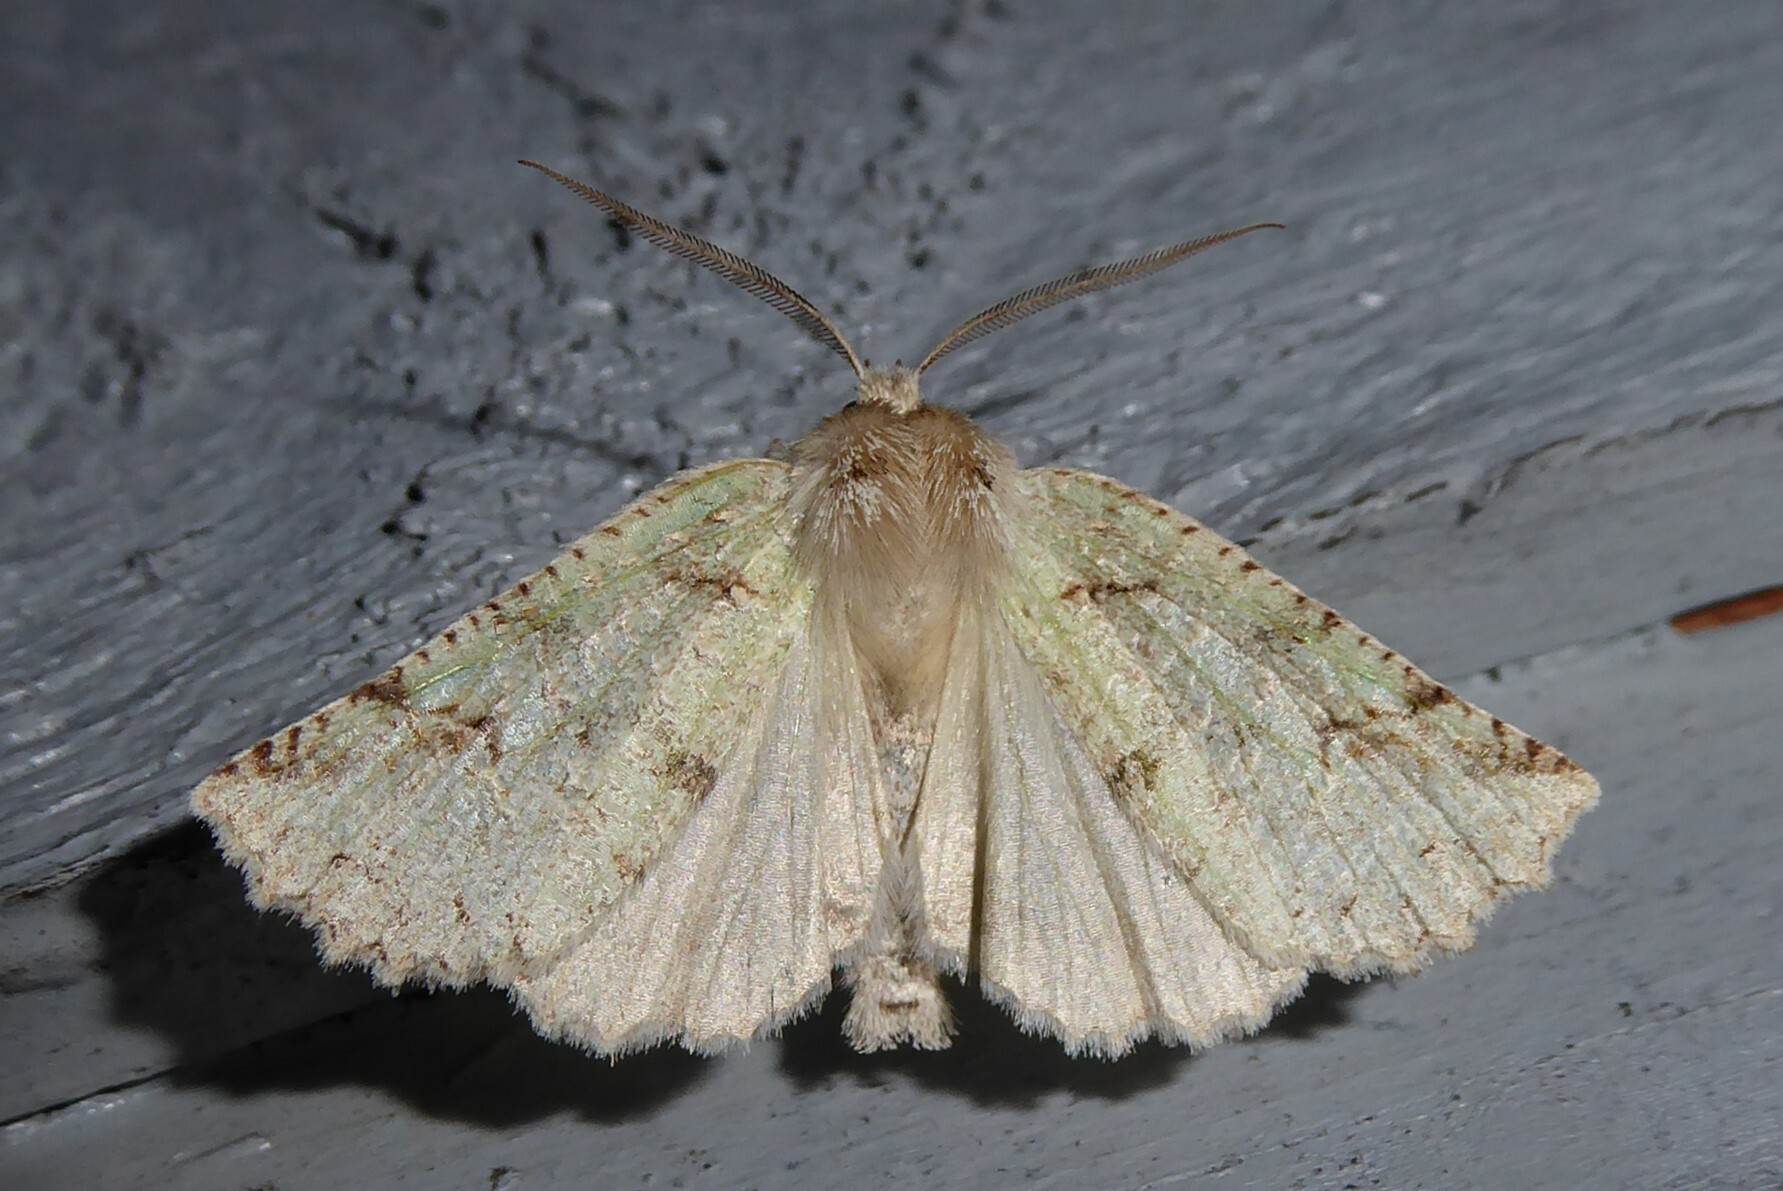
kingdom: Animalia
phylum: Arthropoda
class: Insecta
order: Lepidoptera
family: Geometridae
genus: Declana
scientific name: Declana floccosa
